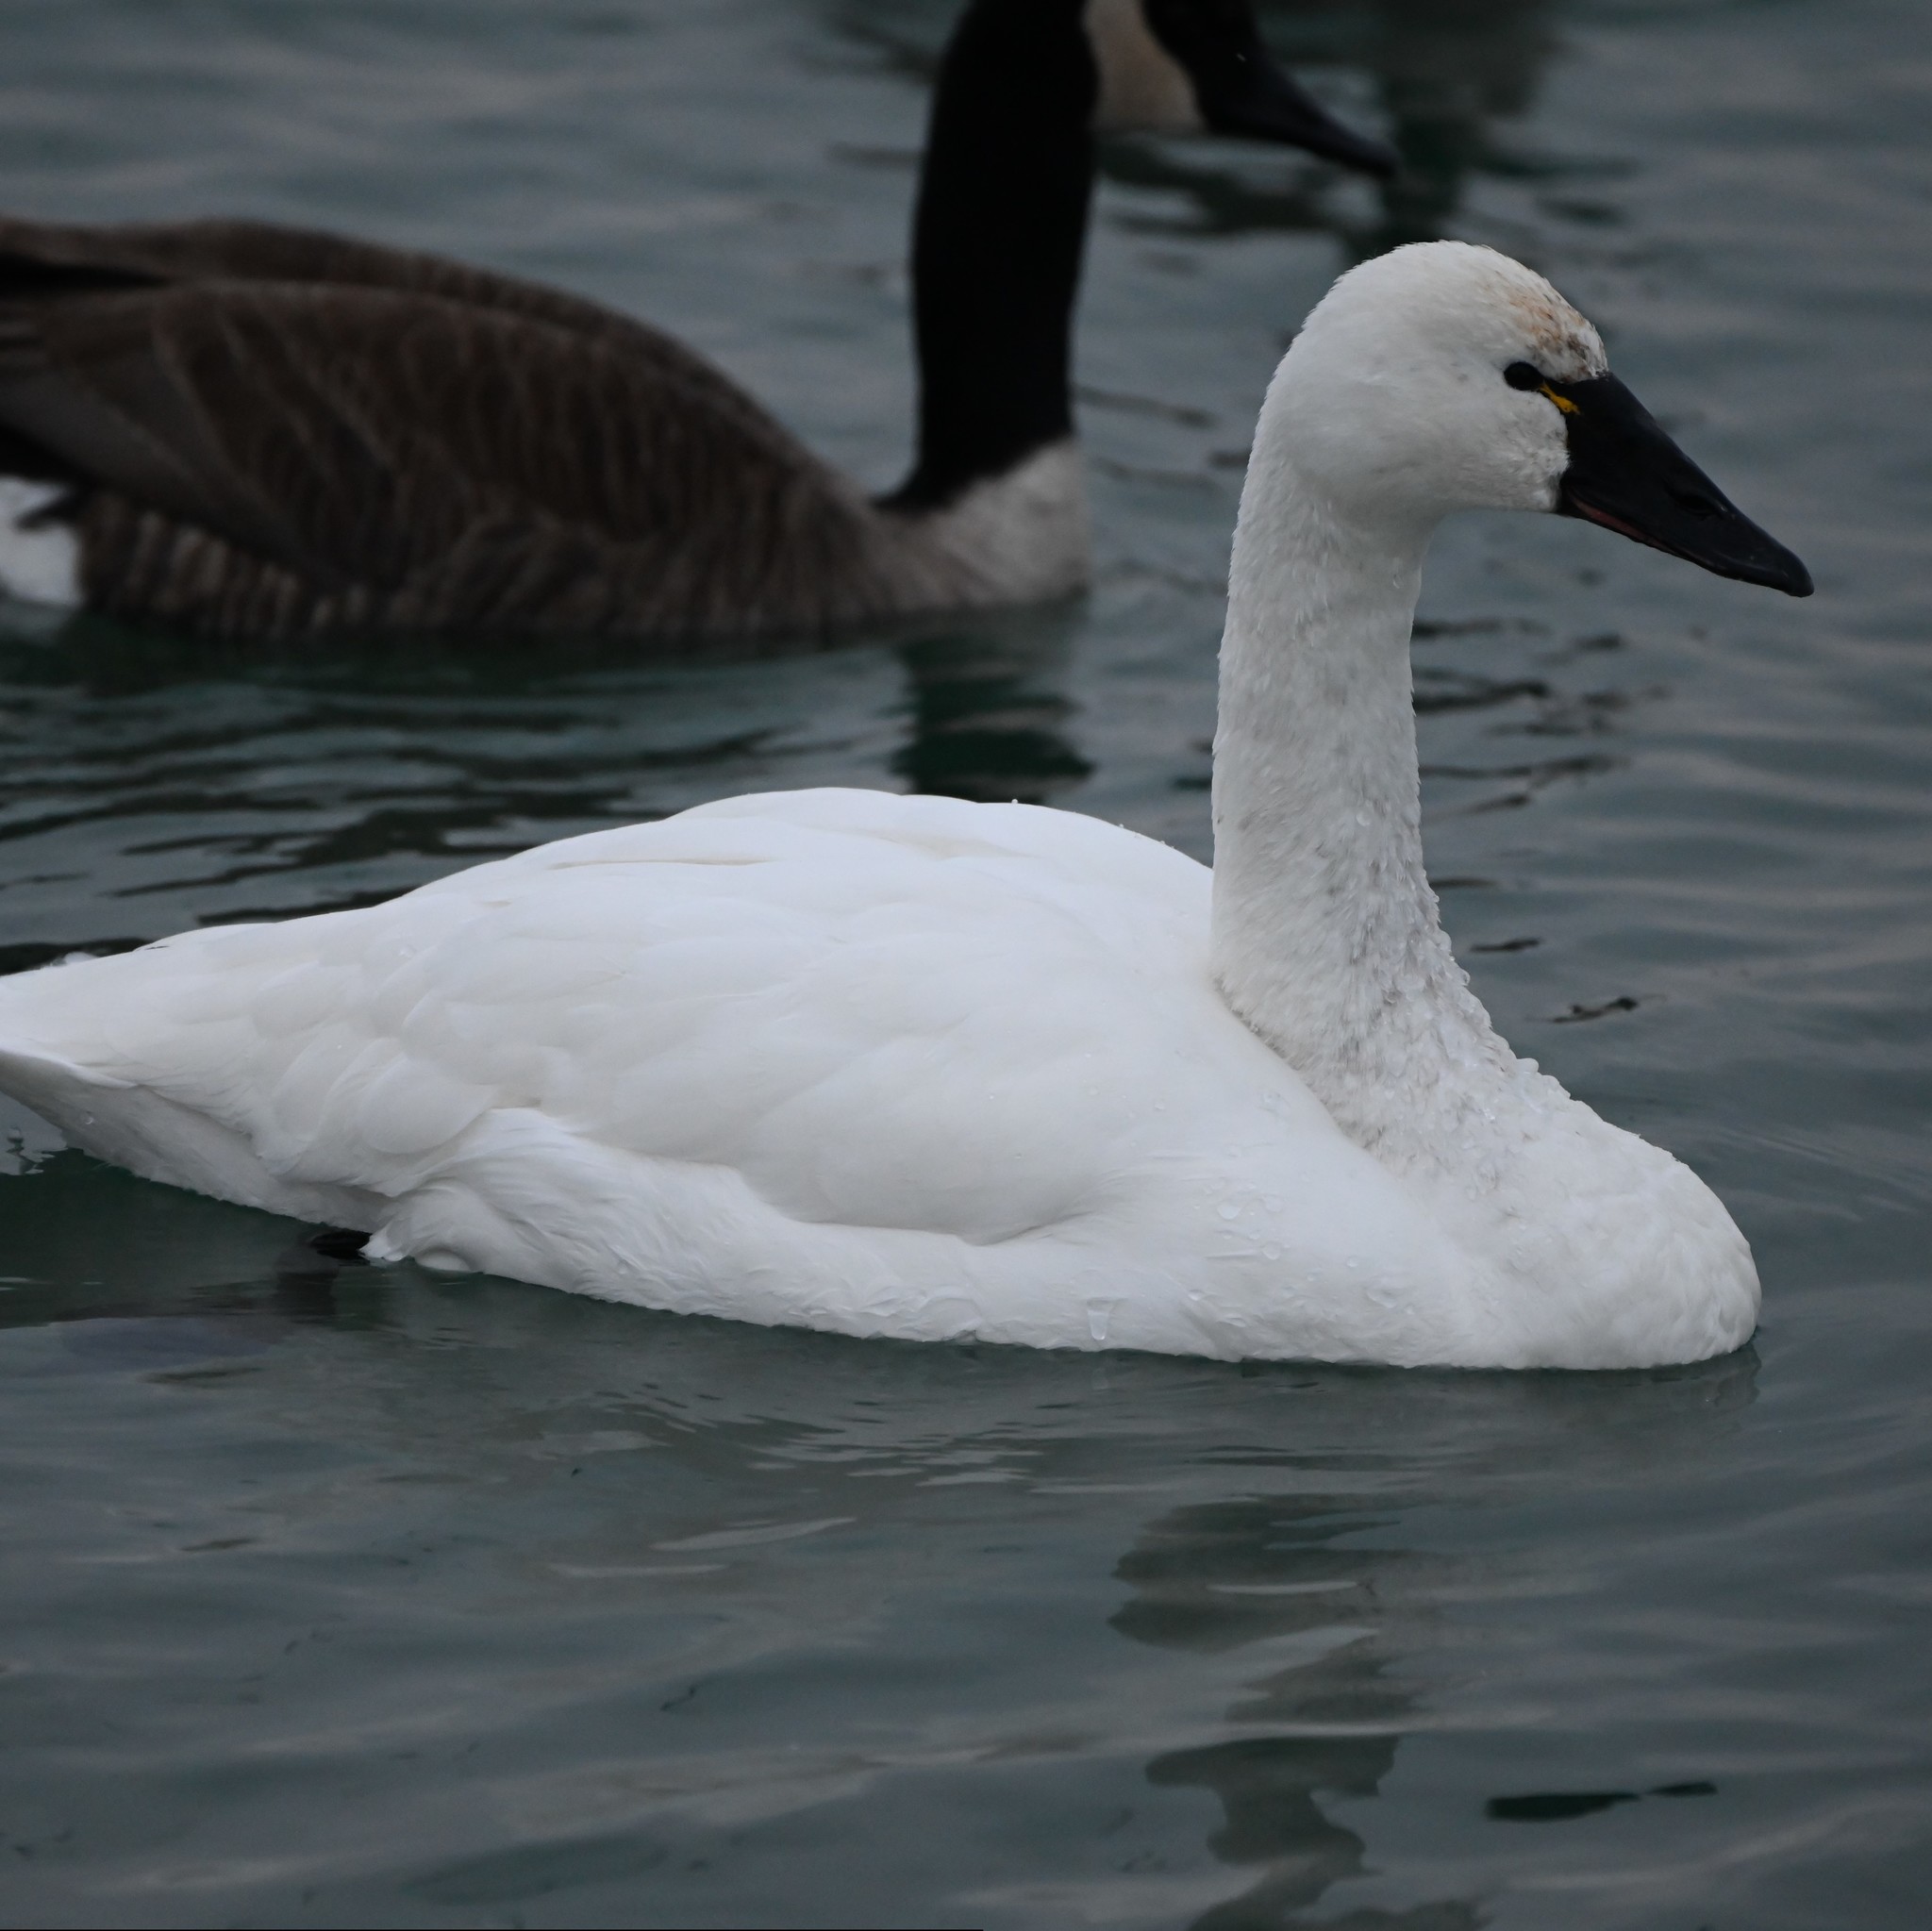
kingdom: Animalia
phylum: Chordata
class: Aves
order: Anseriformes
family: Anatidae
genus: Cygnus
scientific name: Cygnus columbianus
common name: Tundra swan
